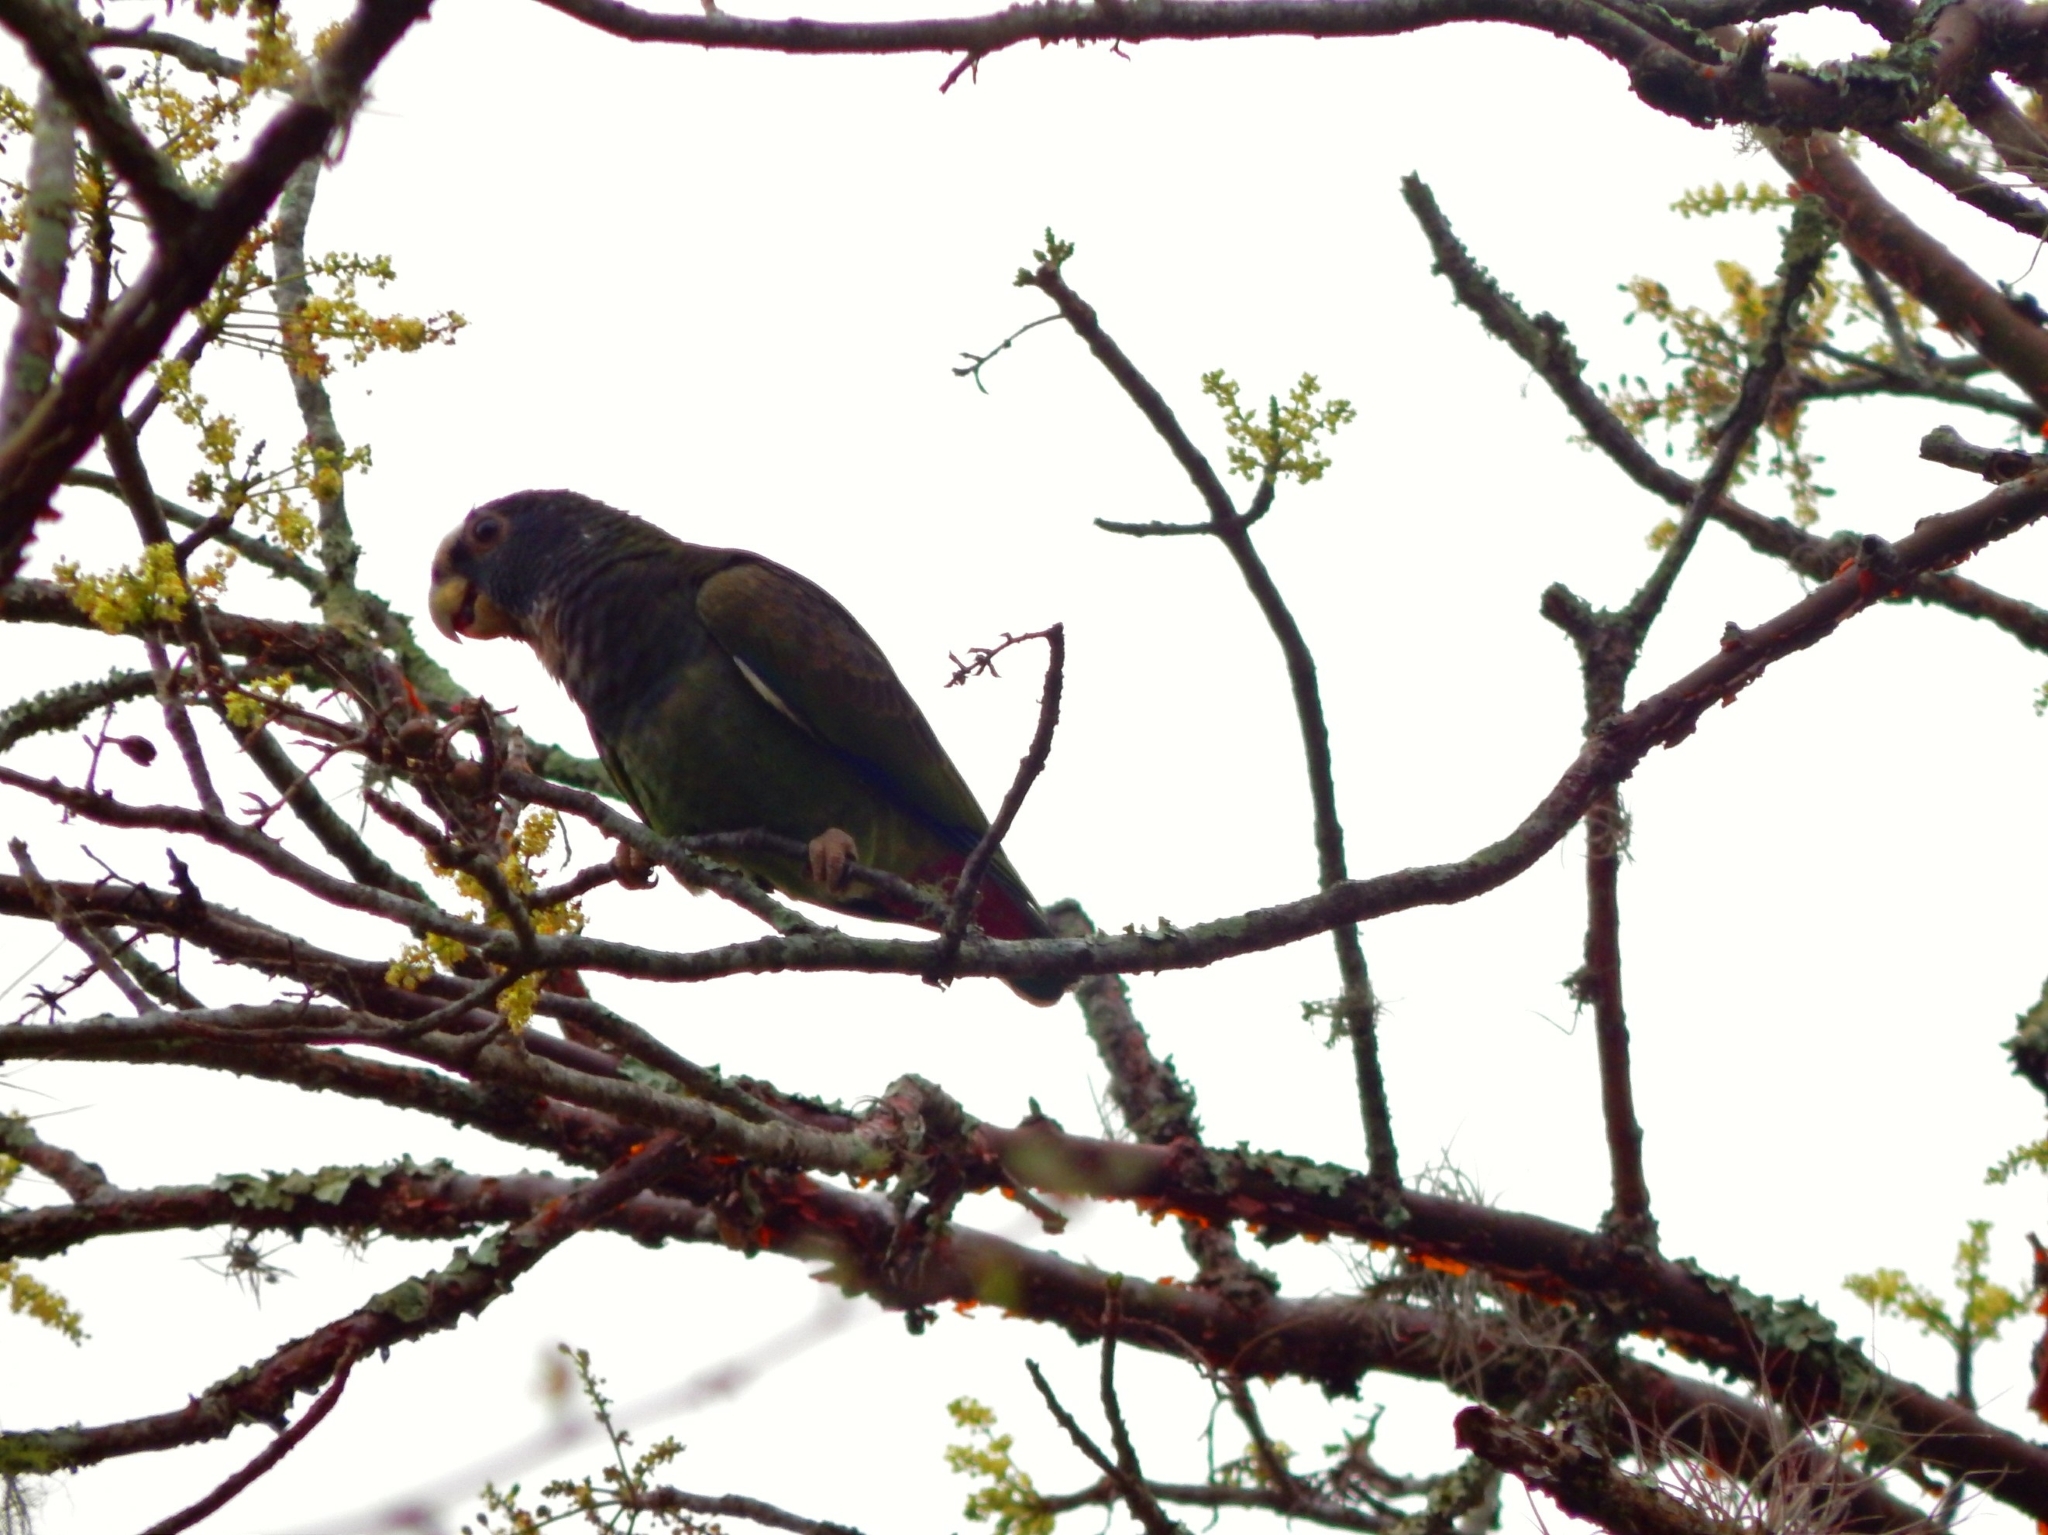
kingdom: Animalia
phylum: Chordata
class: Aves
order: Psittaciformes
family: Psittacidae
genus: Pionus
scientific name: Pionus senilis
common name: White-crowned parrot
